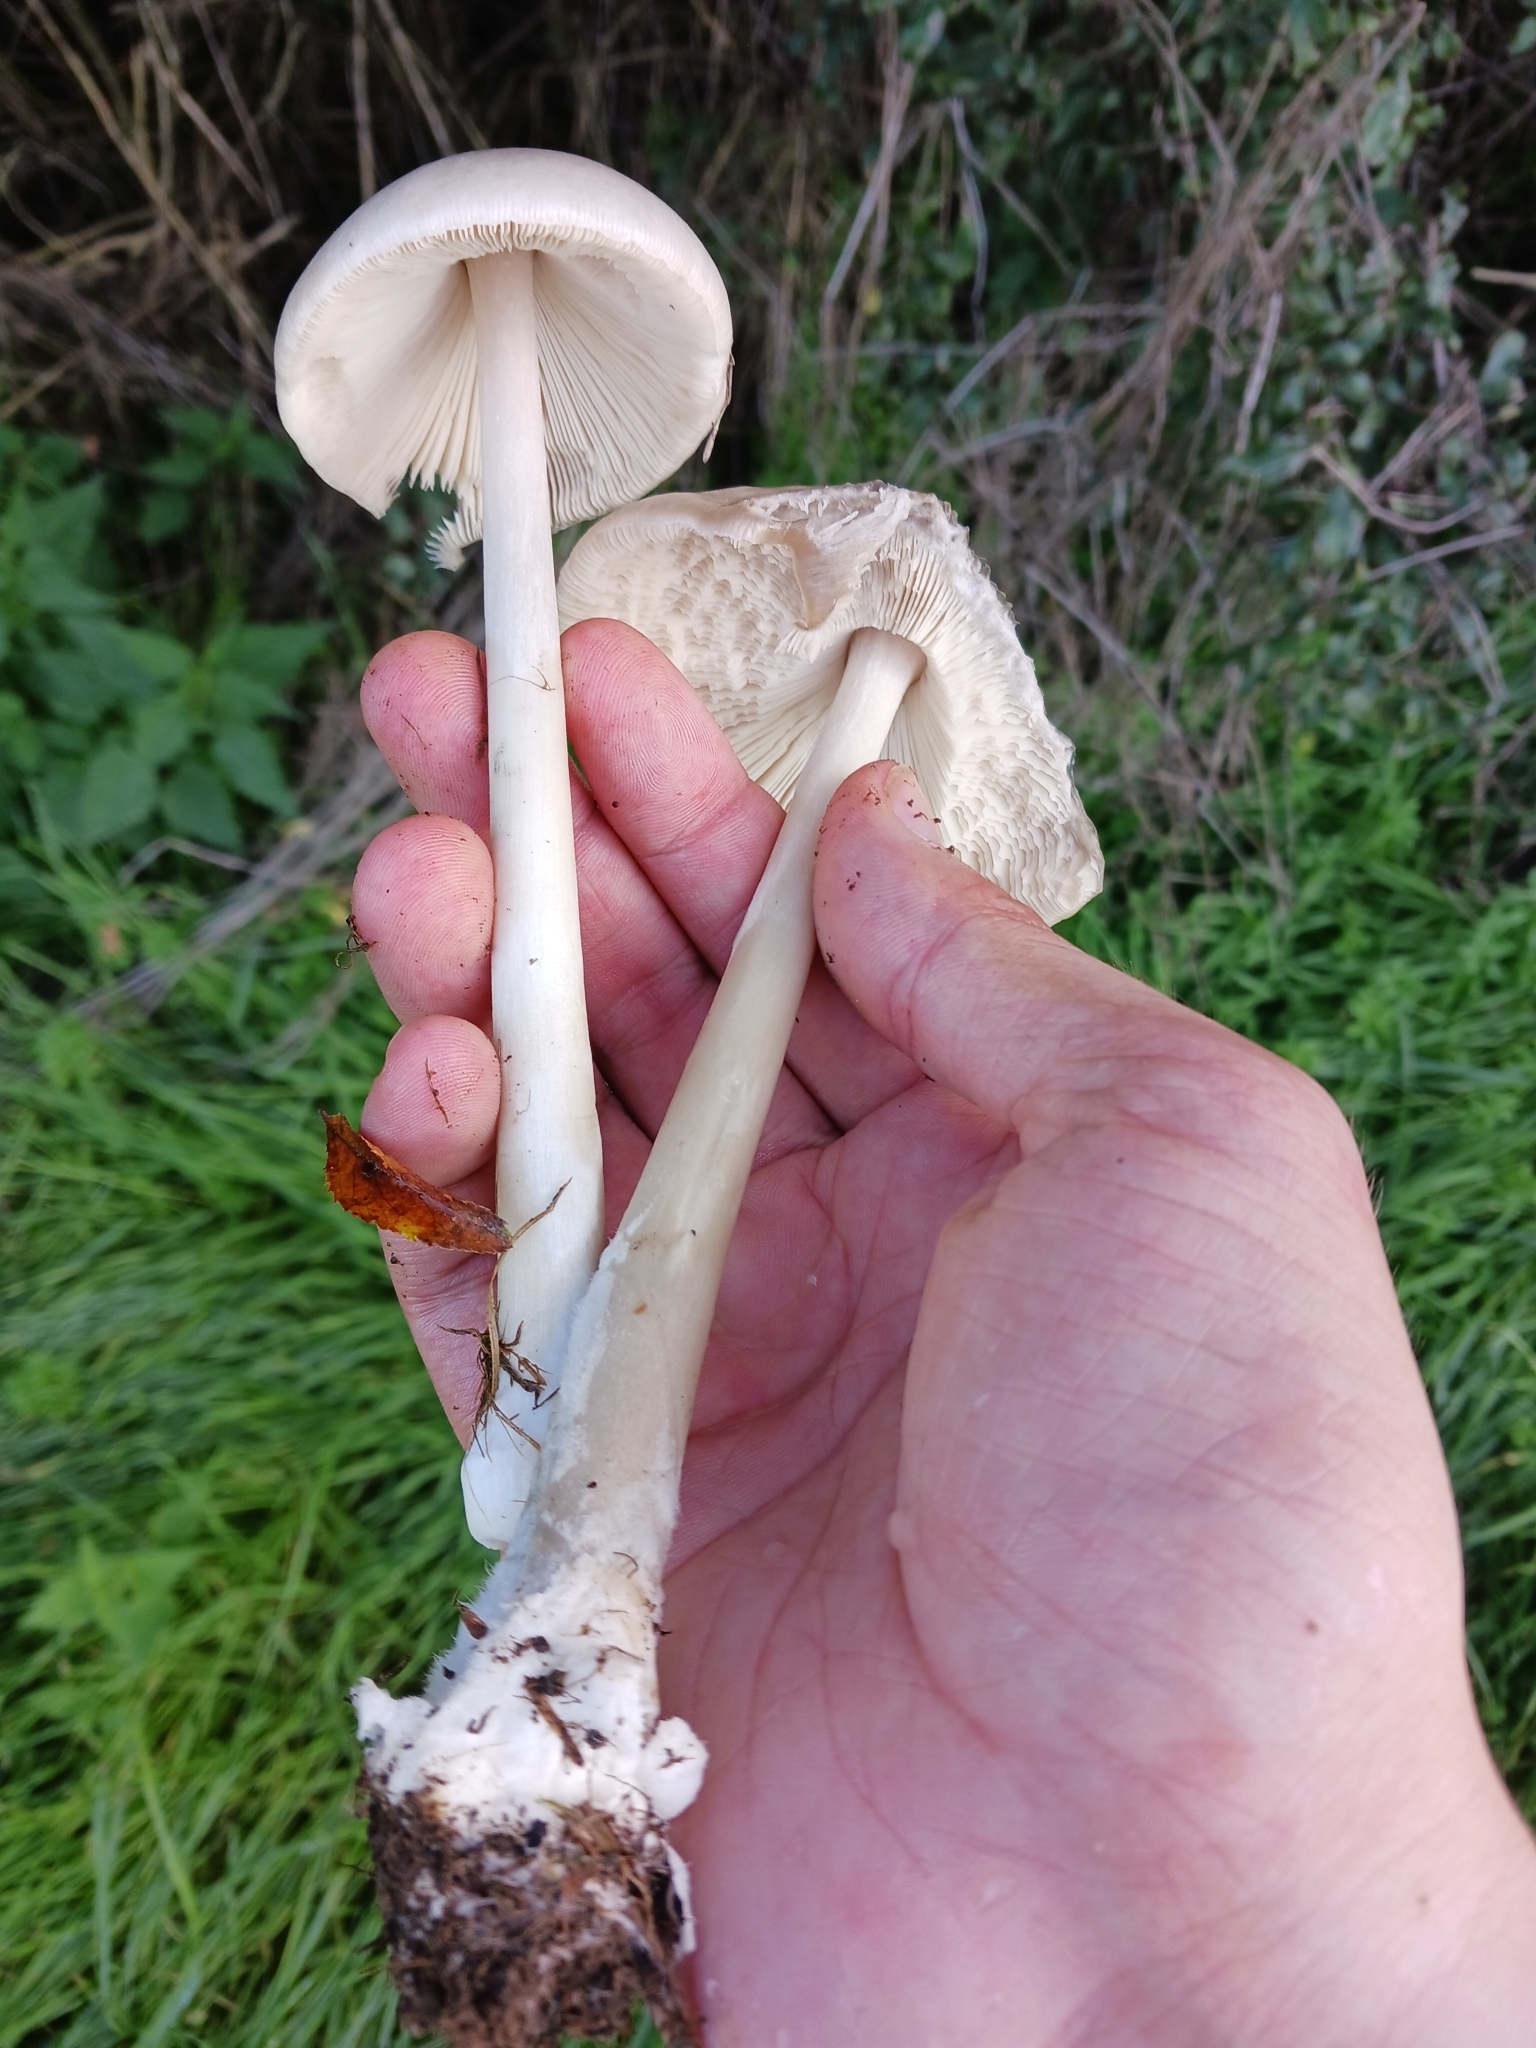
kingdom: Fungi
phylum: Basidiomycota
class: Agaricomycetes
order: Agaricales
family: Pluteaceae
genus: Volvopluteus
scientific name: Volvopluteus gloiocephalus
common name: Stubble rosegill
